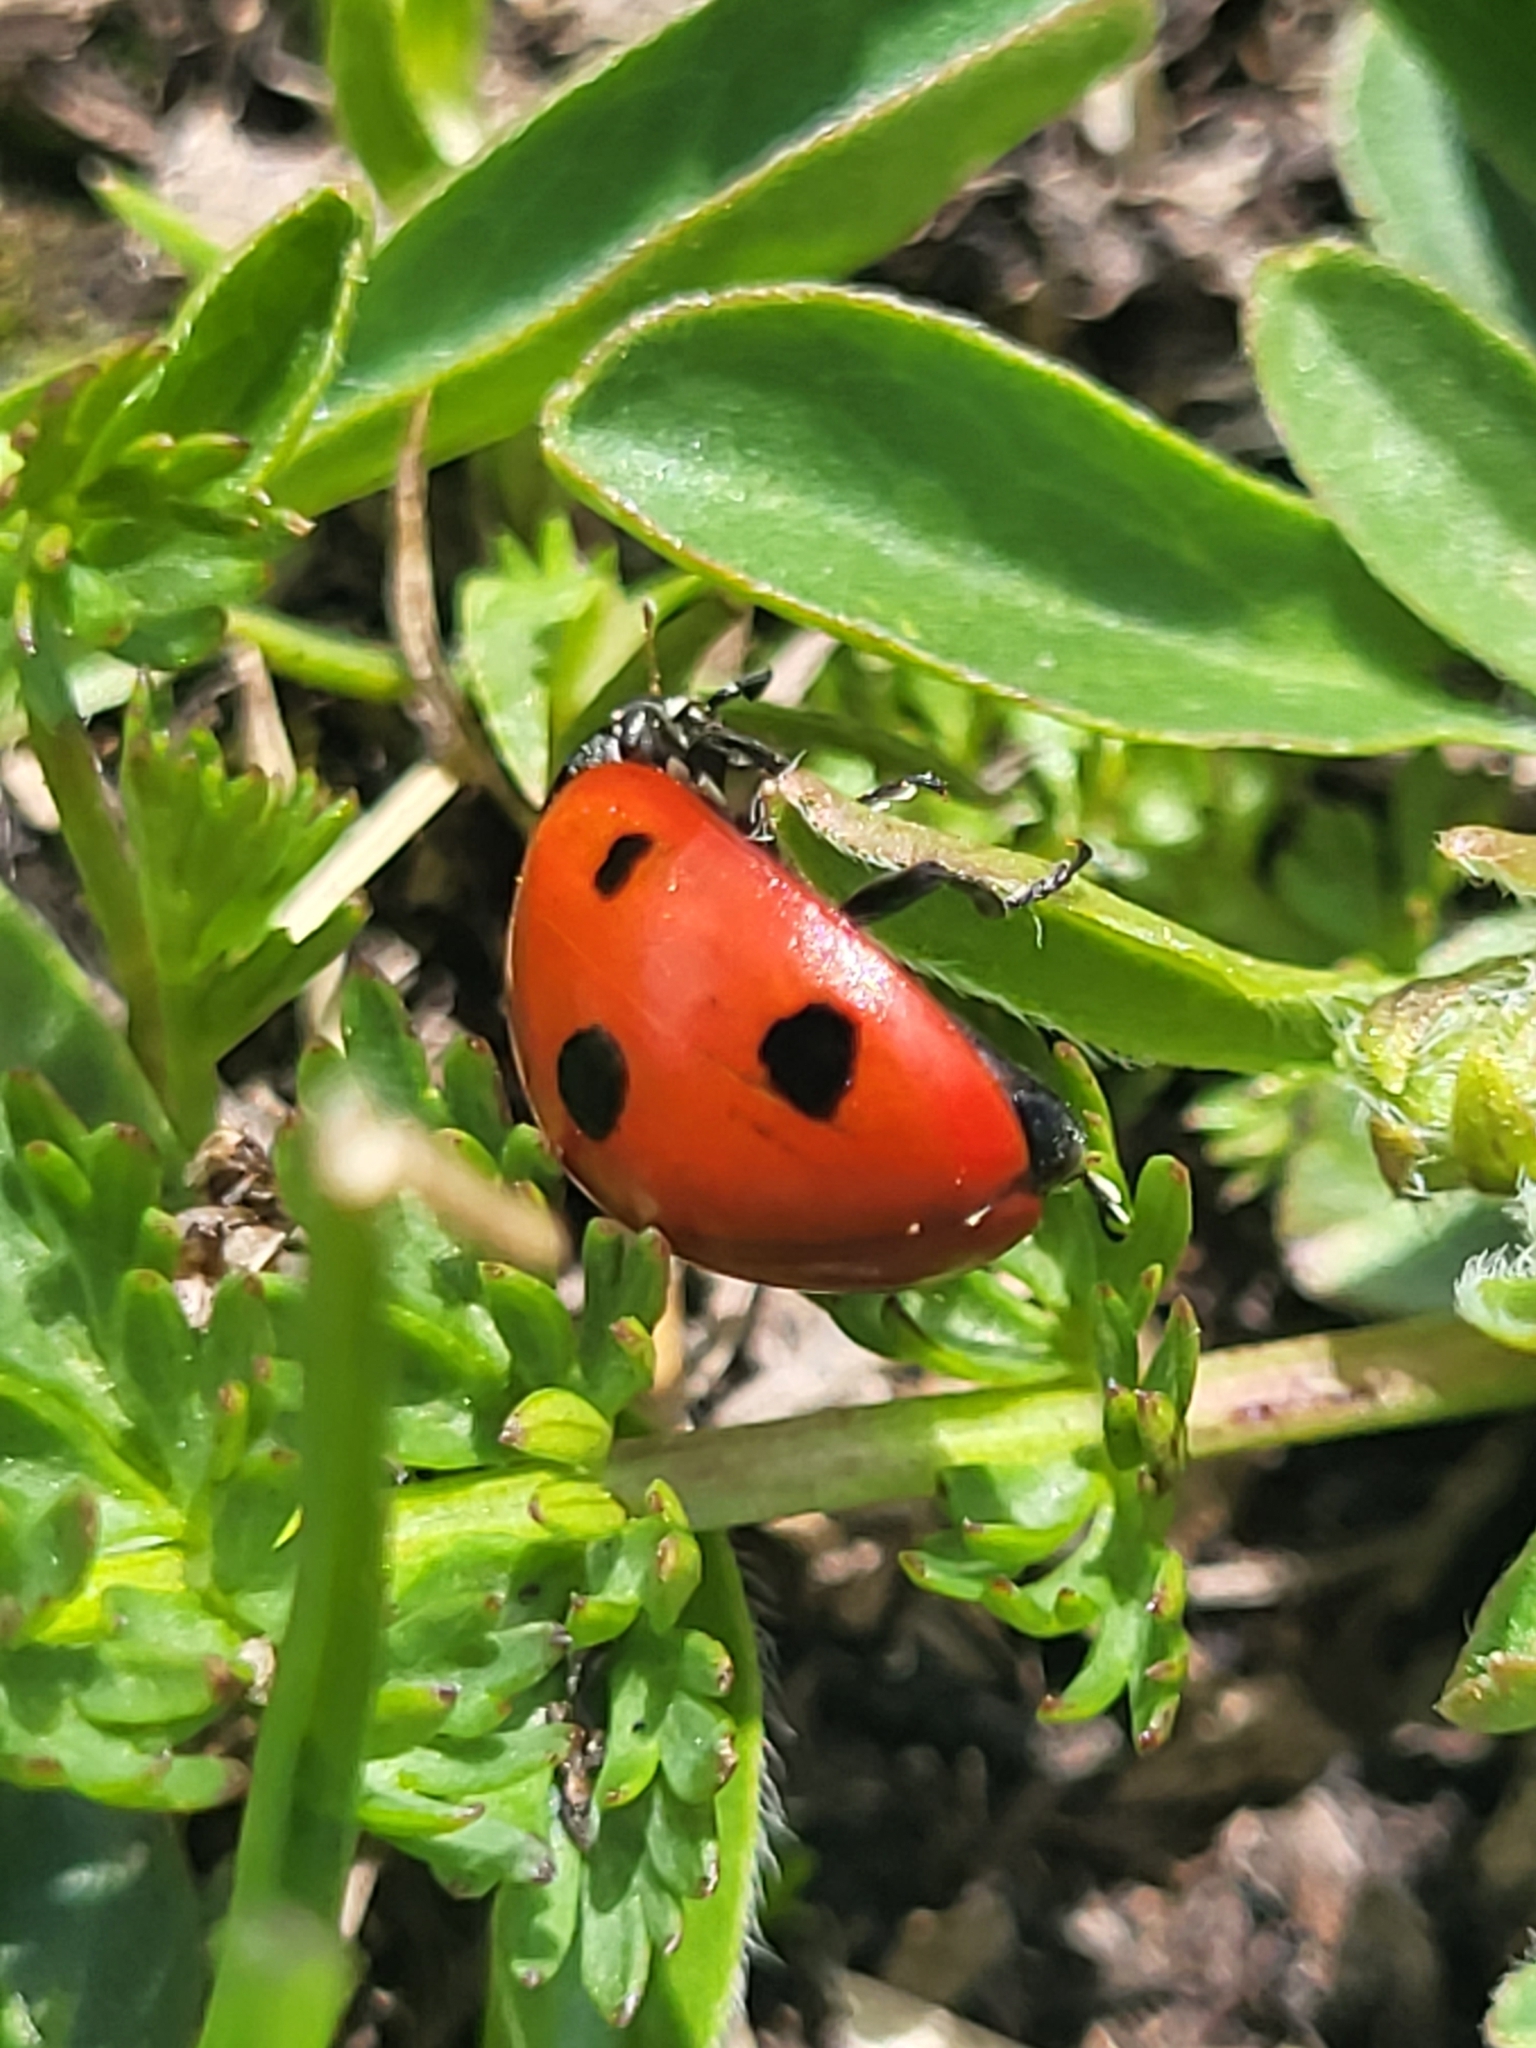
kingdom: Animalia
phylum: Arthropoda
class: Insecta
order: Coleoptera
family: Coccinellidae
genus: Coccinella
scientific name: Coccinella septempunctata
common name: Sevenspotted lady beetle
